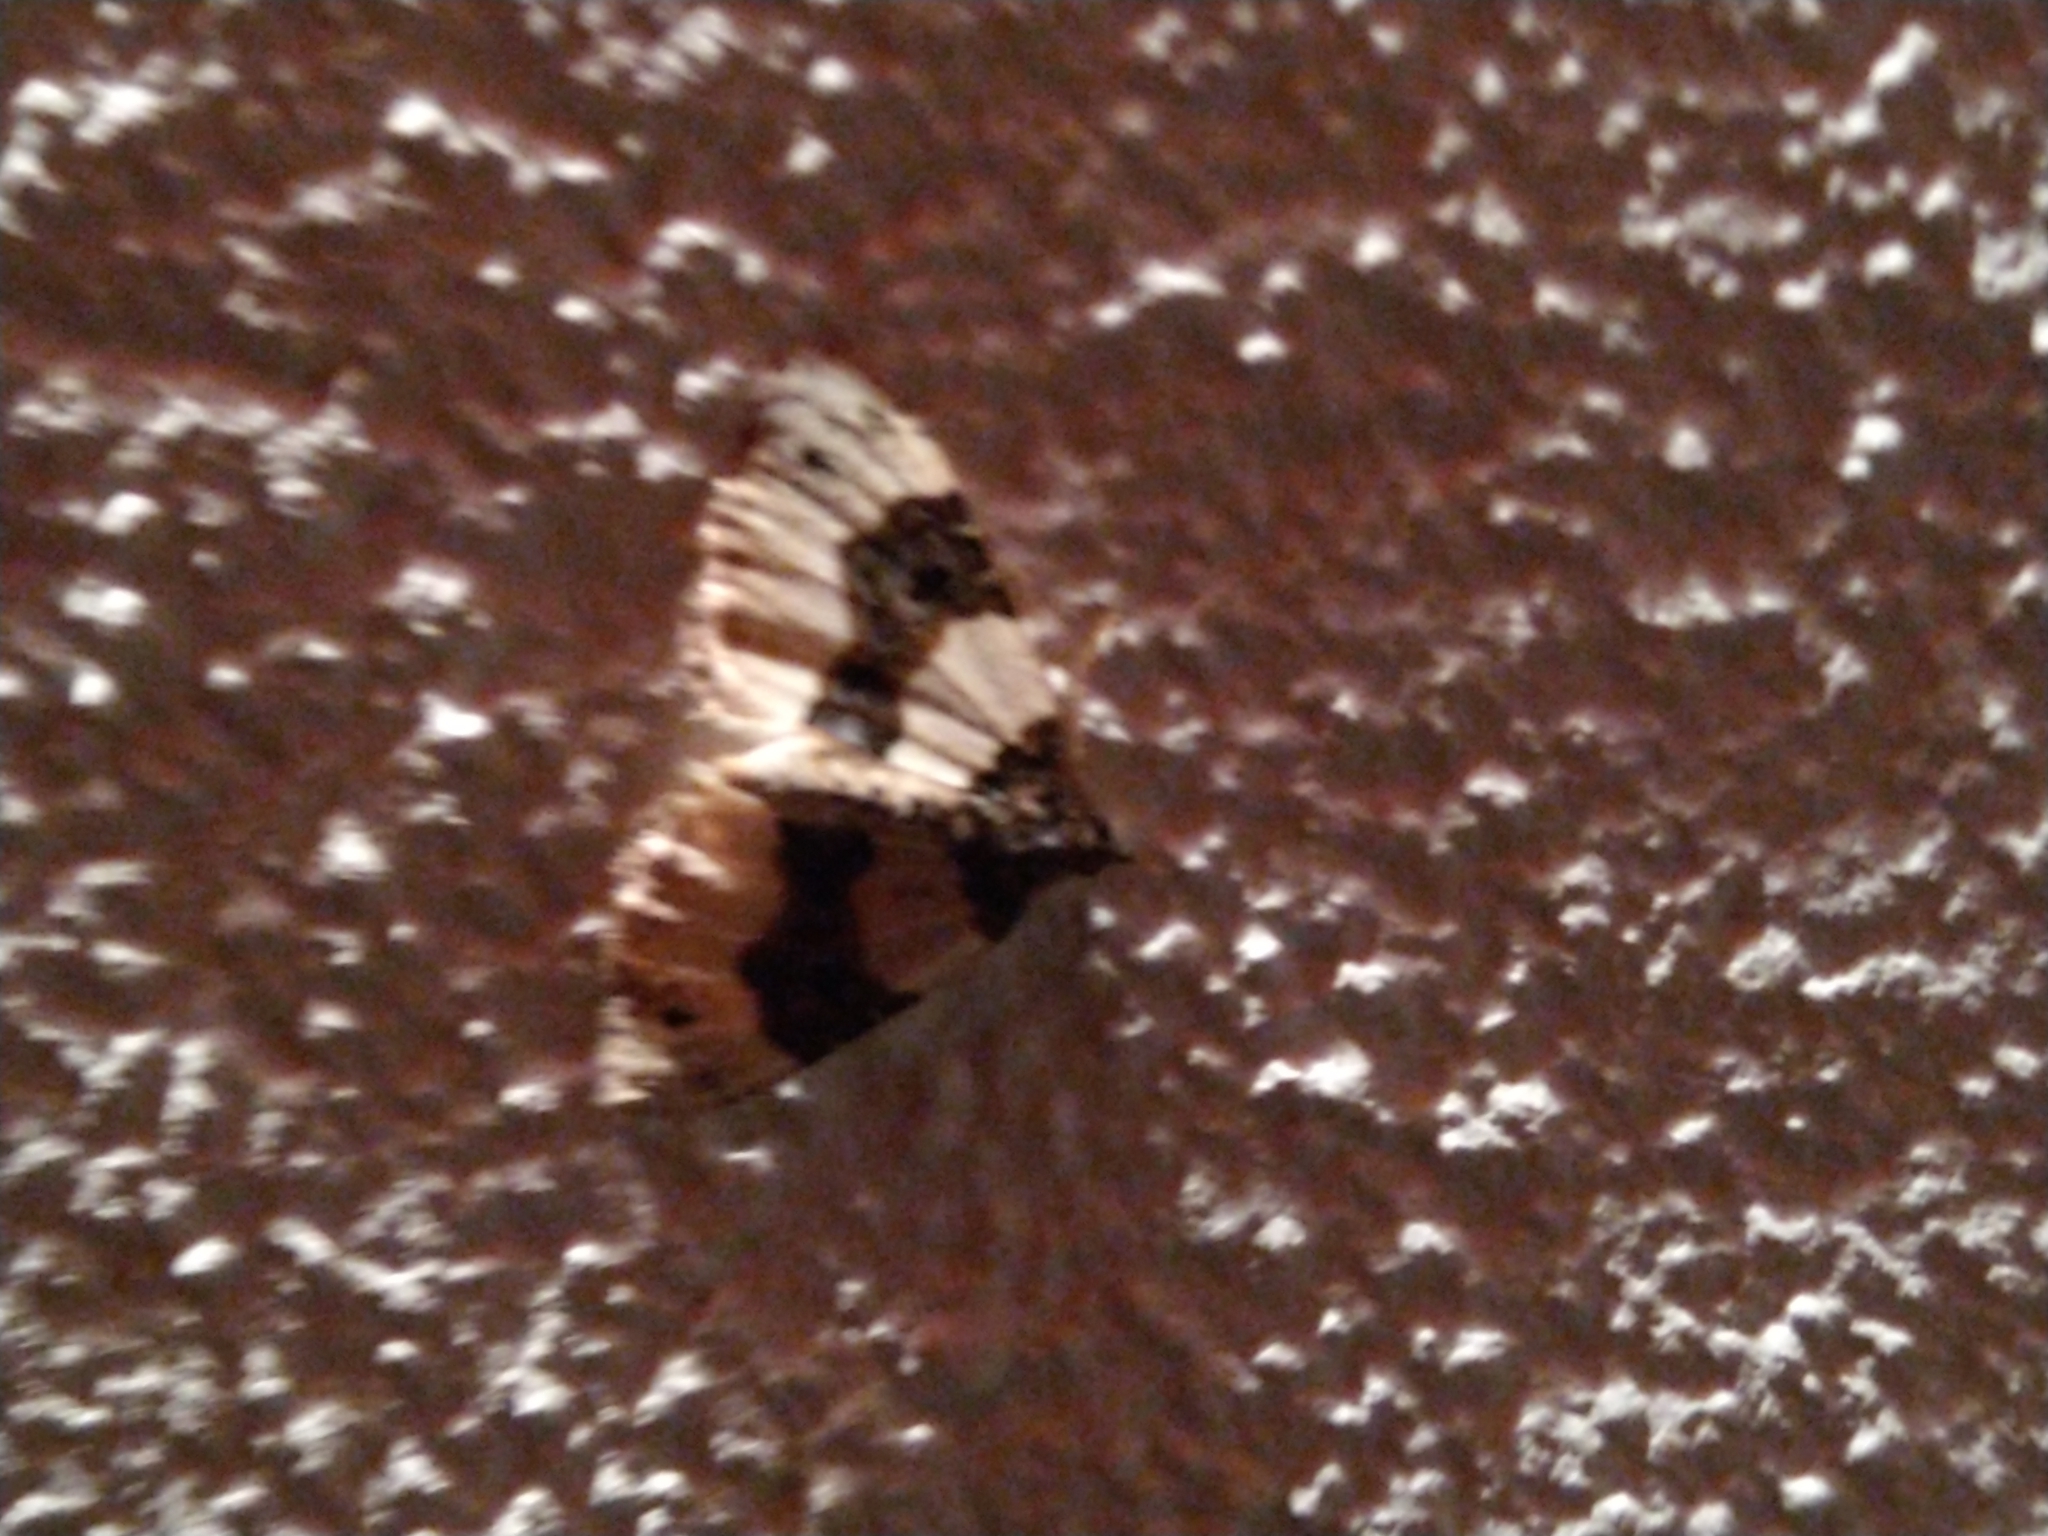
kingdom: Animalia
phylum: Arthropoda
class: Insecta
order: Lepidoptera
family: Geometridae
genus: Cosmorhoe
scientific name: Cosmorhoe ocellata
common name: Purple bar
